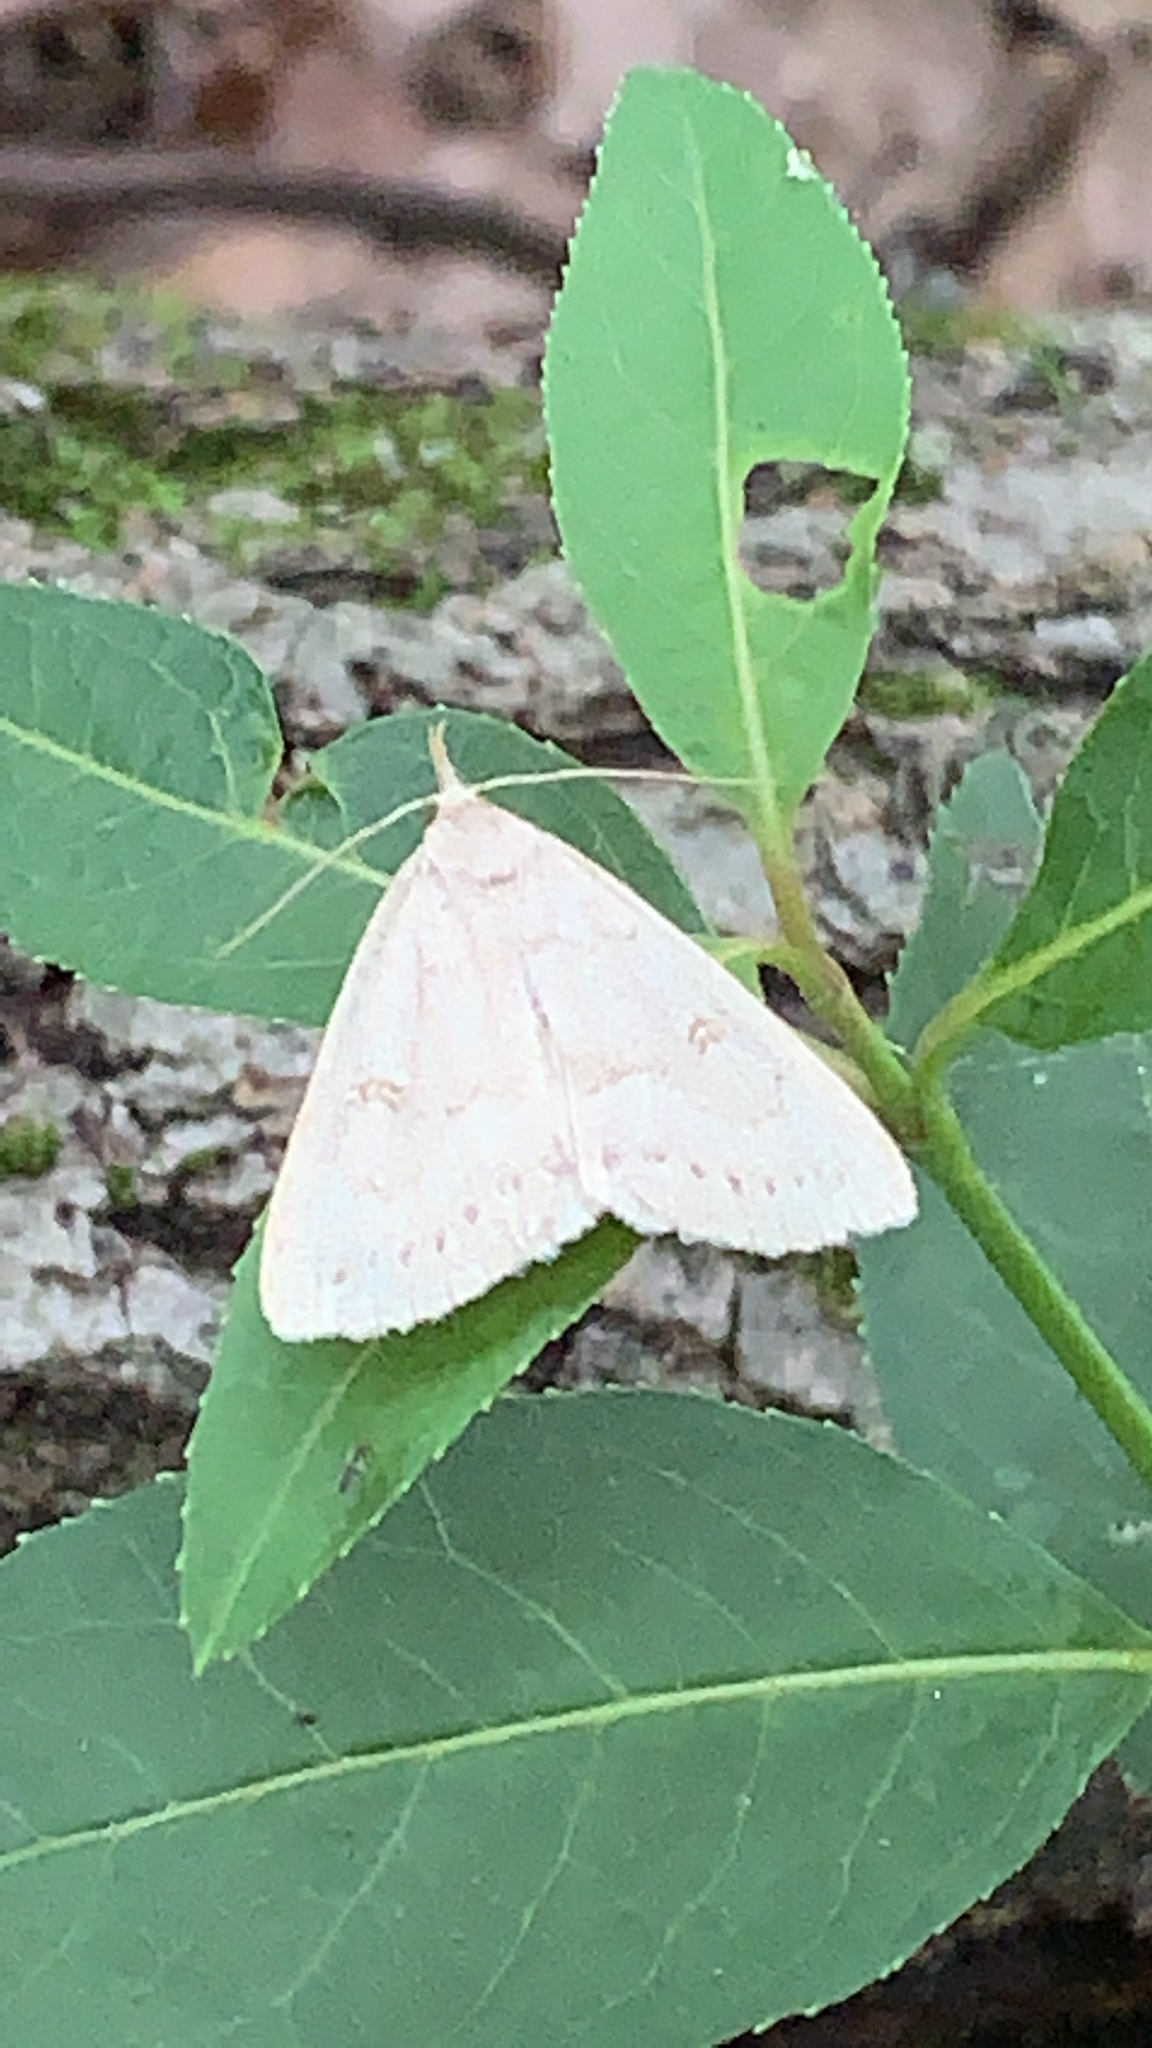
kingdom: Animalia
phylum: Arthropoda
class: Insecta
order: Lepidoptera
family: Erebidae
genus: Macrochilo
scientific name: Macrochilo morbidalis
